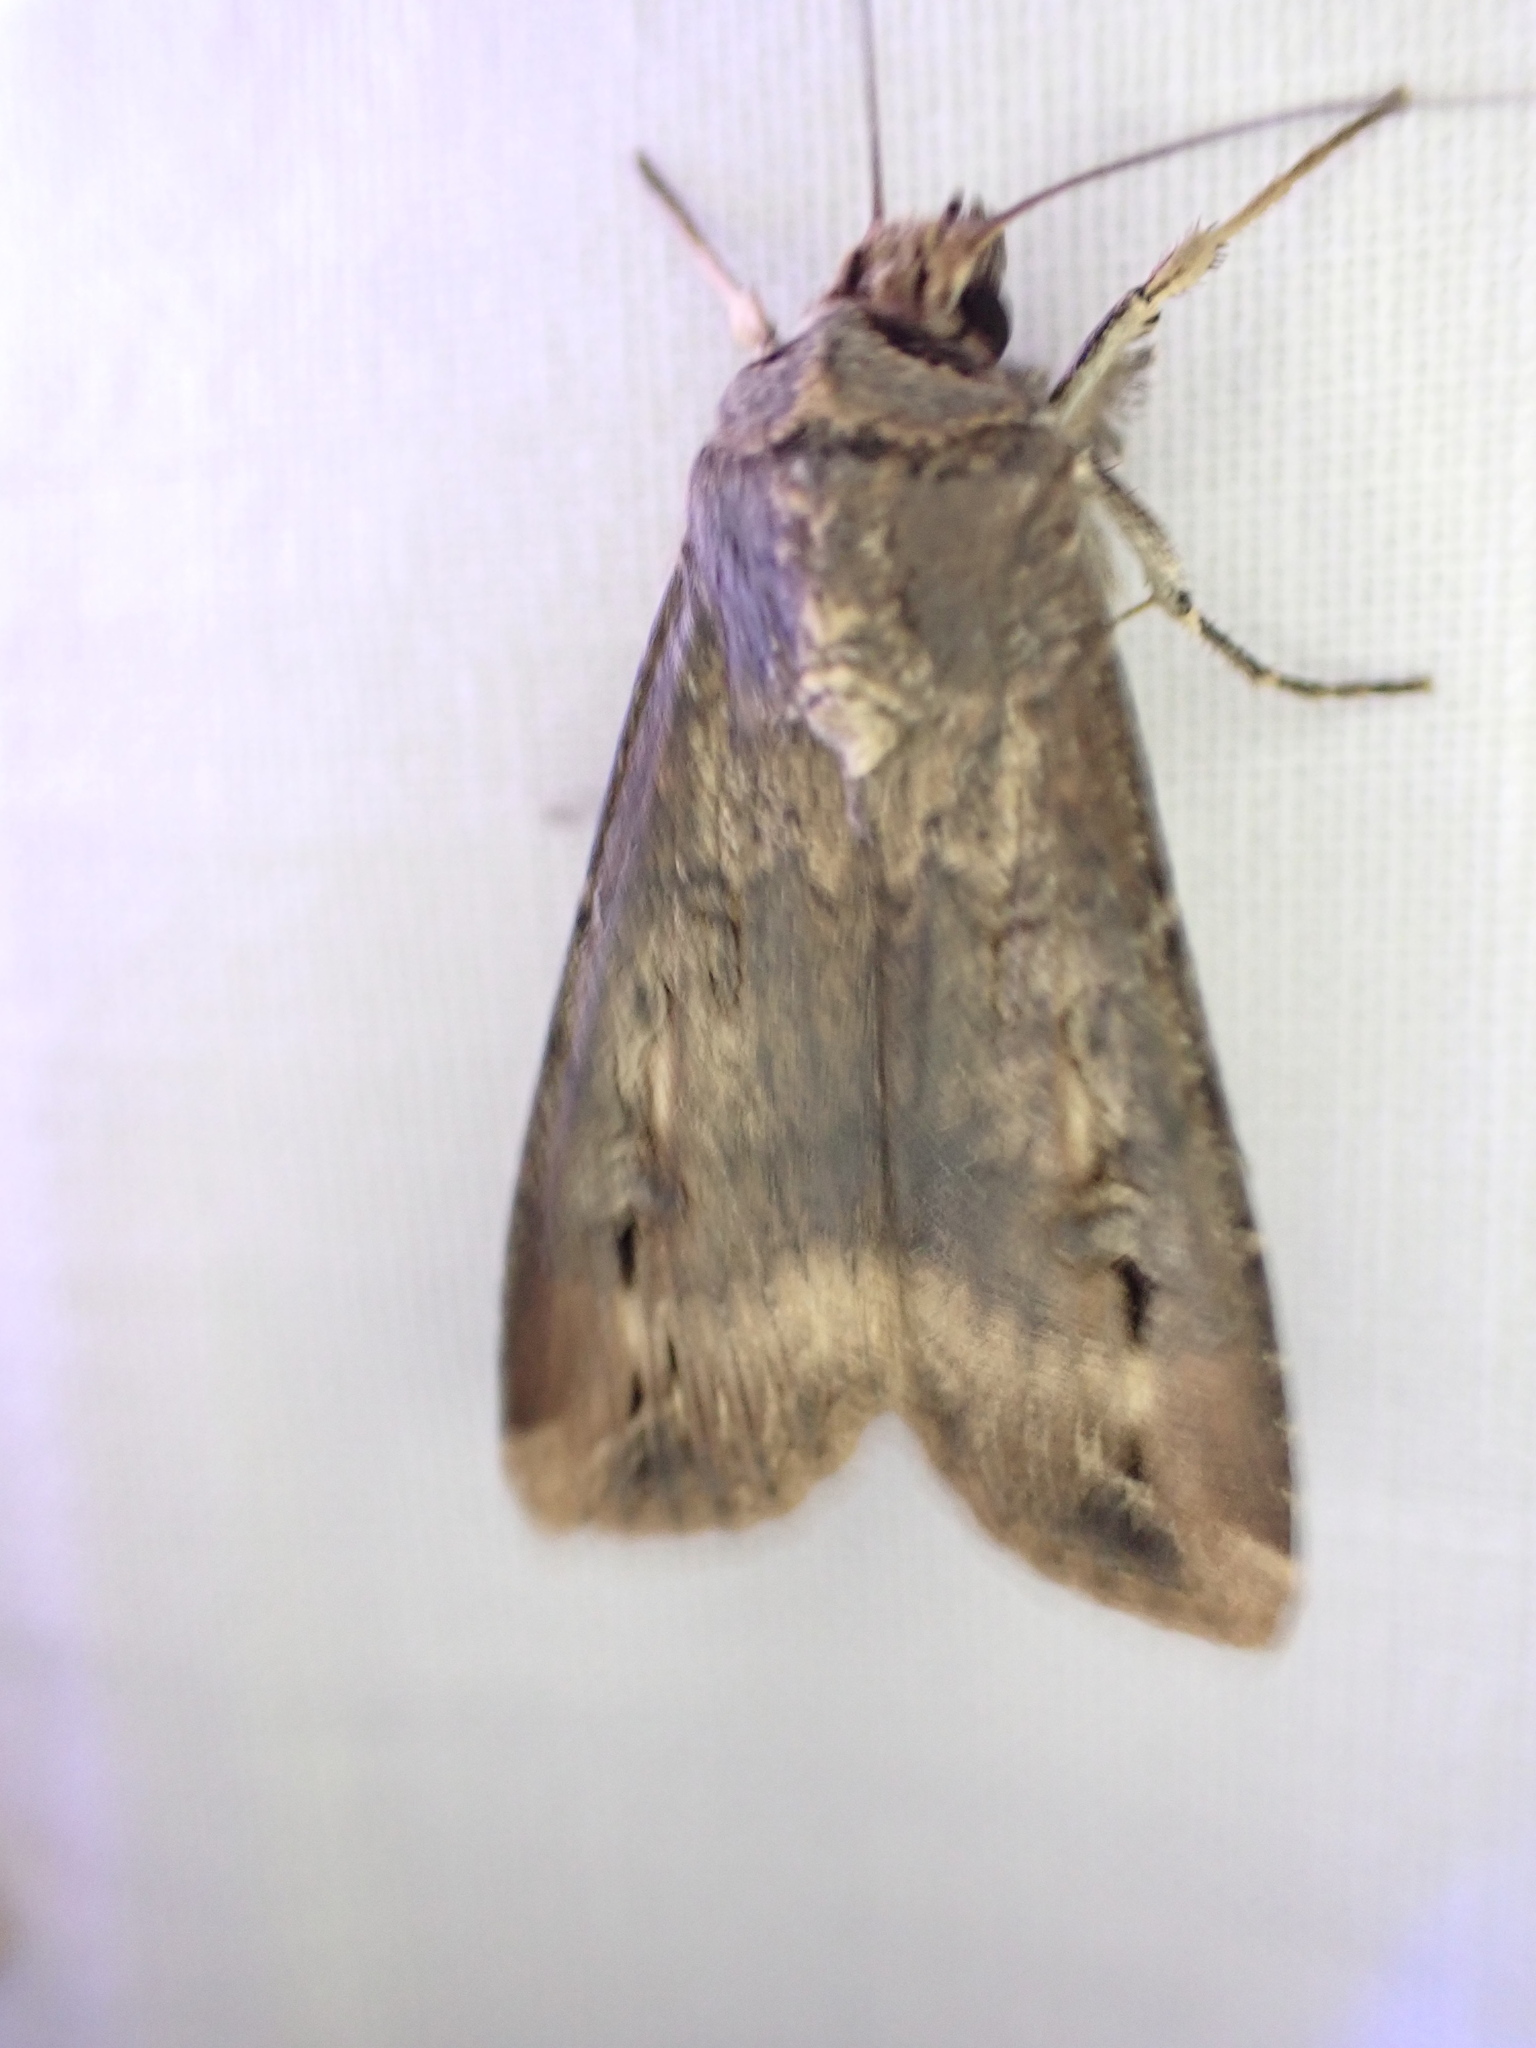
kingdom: Animalia
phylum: Arthropoda
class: Insecta
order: Lepidoptera
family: Noctuidae
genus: Agrotis
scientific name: Agrotis ipsilon
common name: Dark sword-grass
